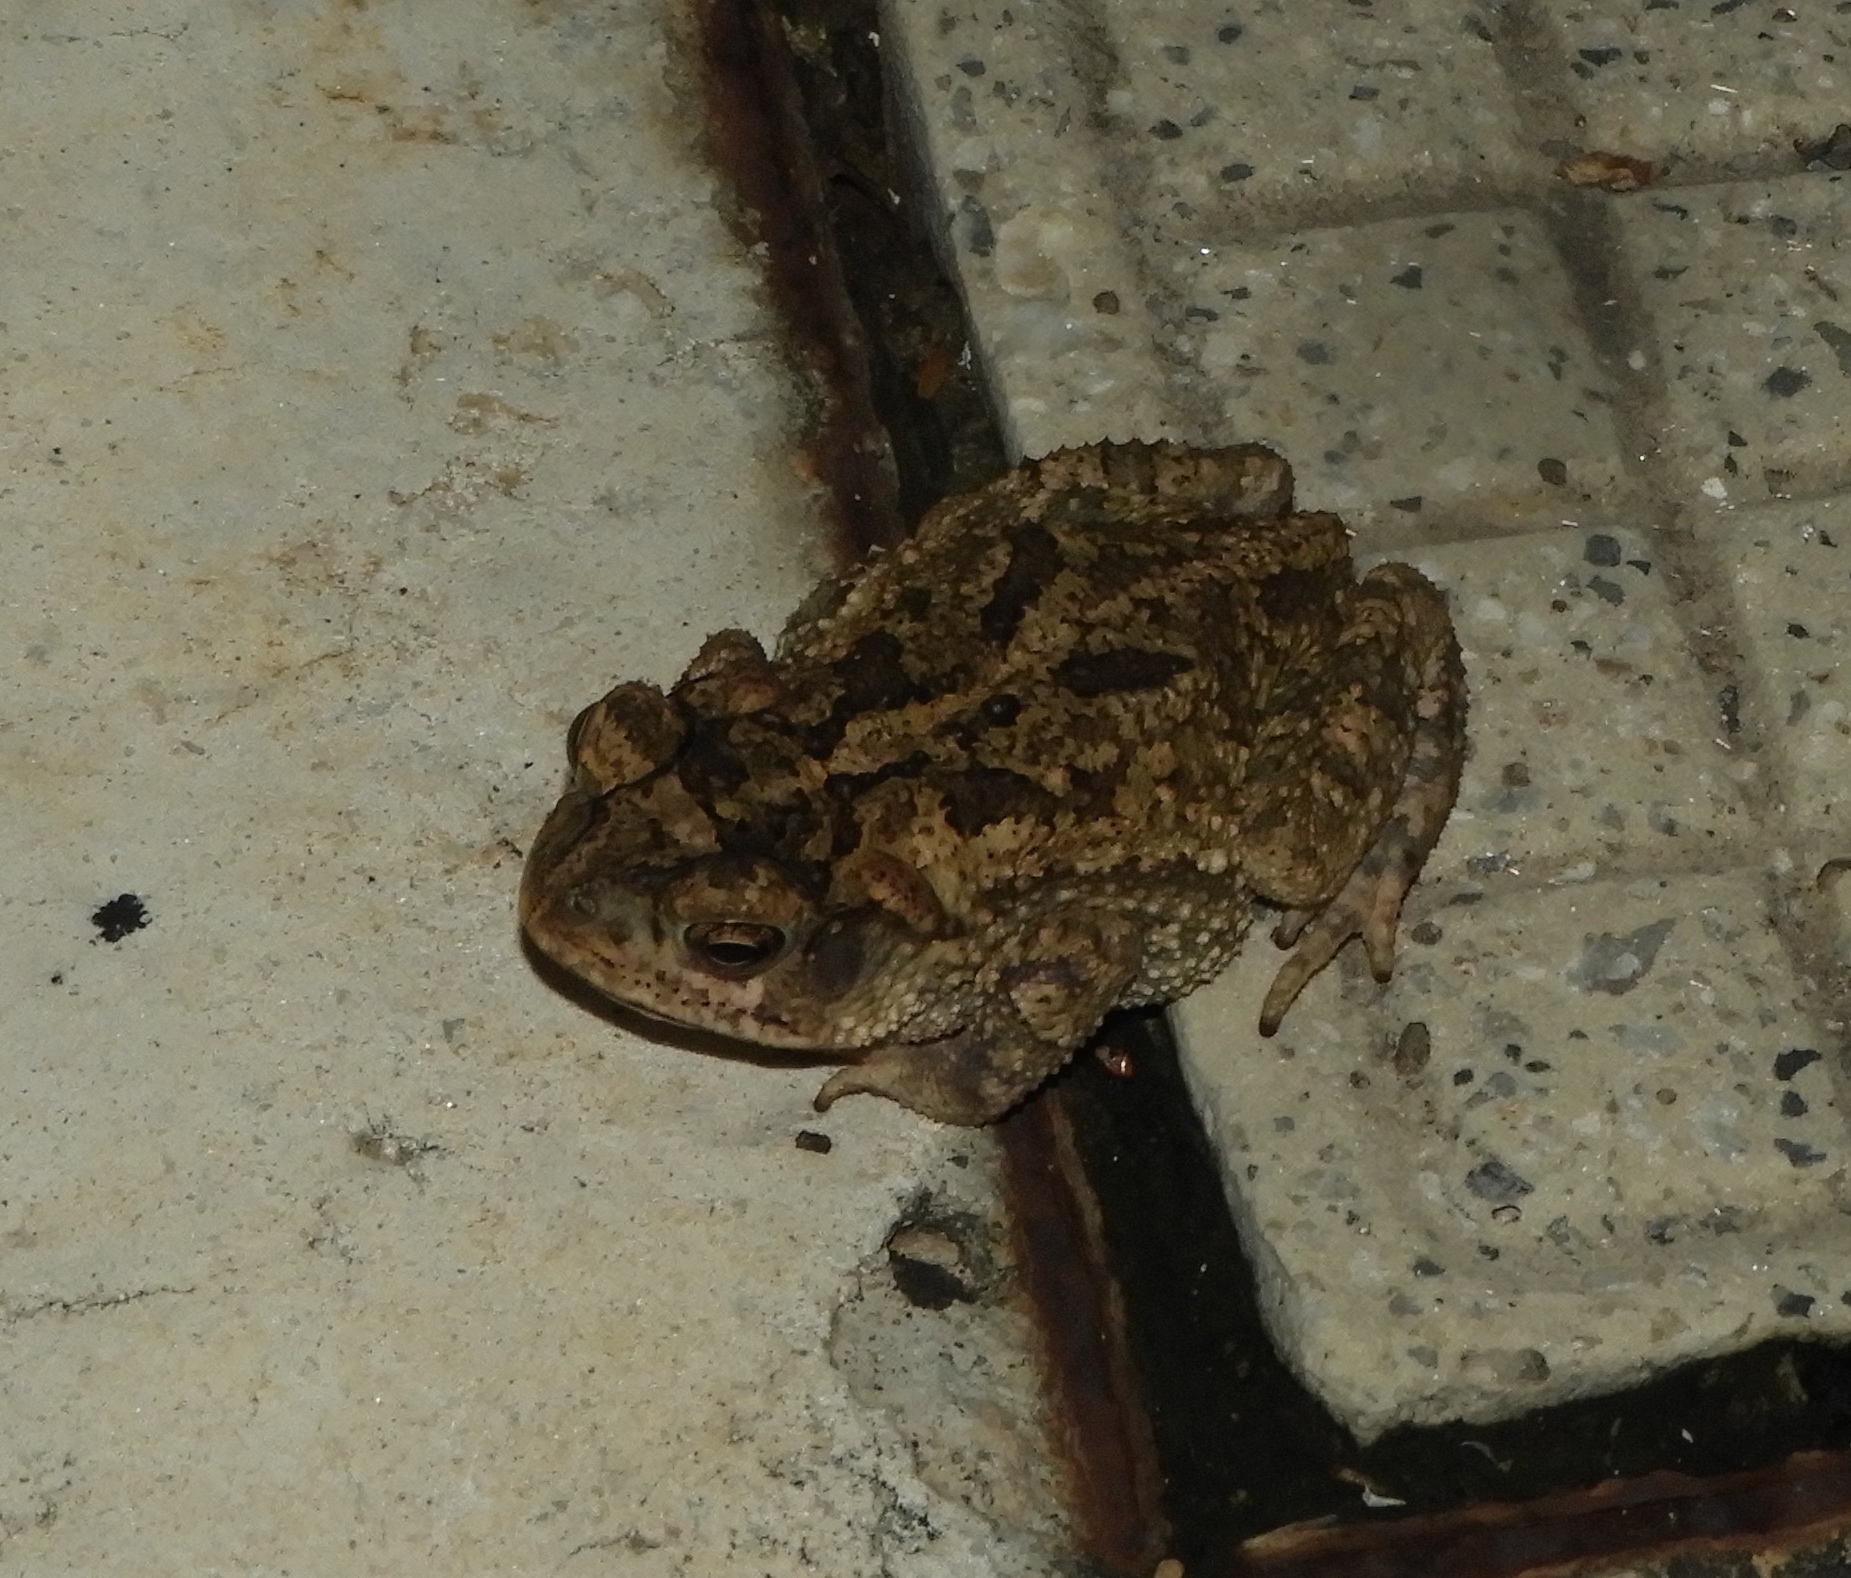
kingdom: Animalia
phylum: Chordata
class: Amphibia
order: Anura
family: Bufonidae
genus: Incilius
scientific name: Incilius mazatlanensis
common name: Sinaloa toad
